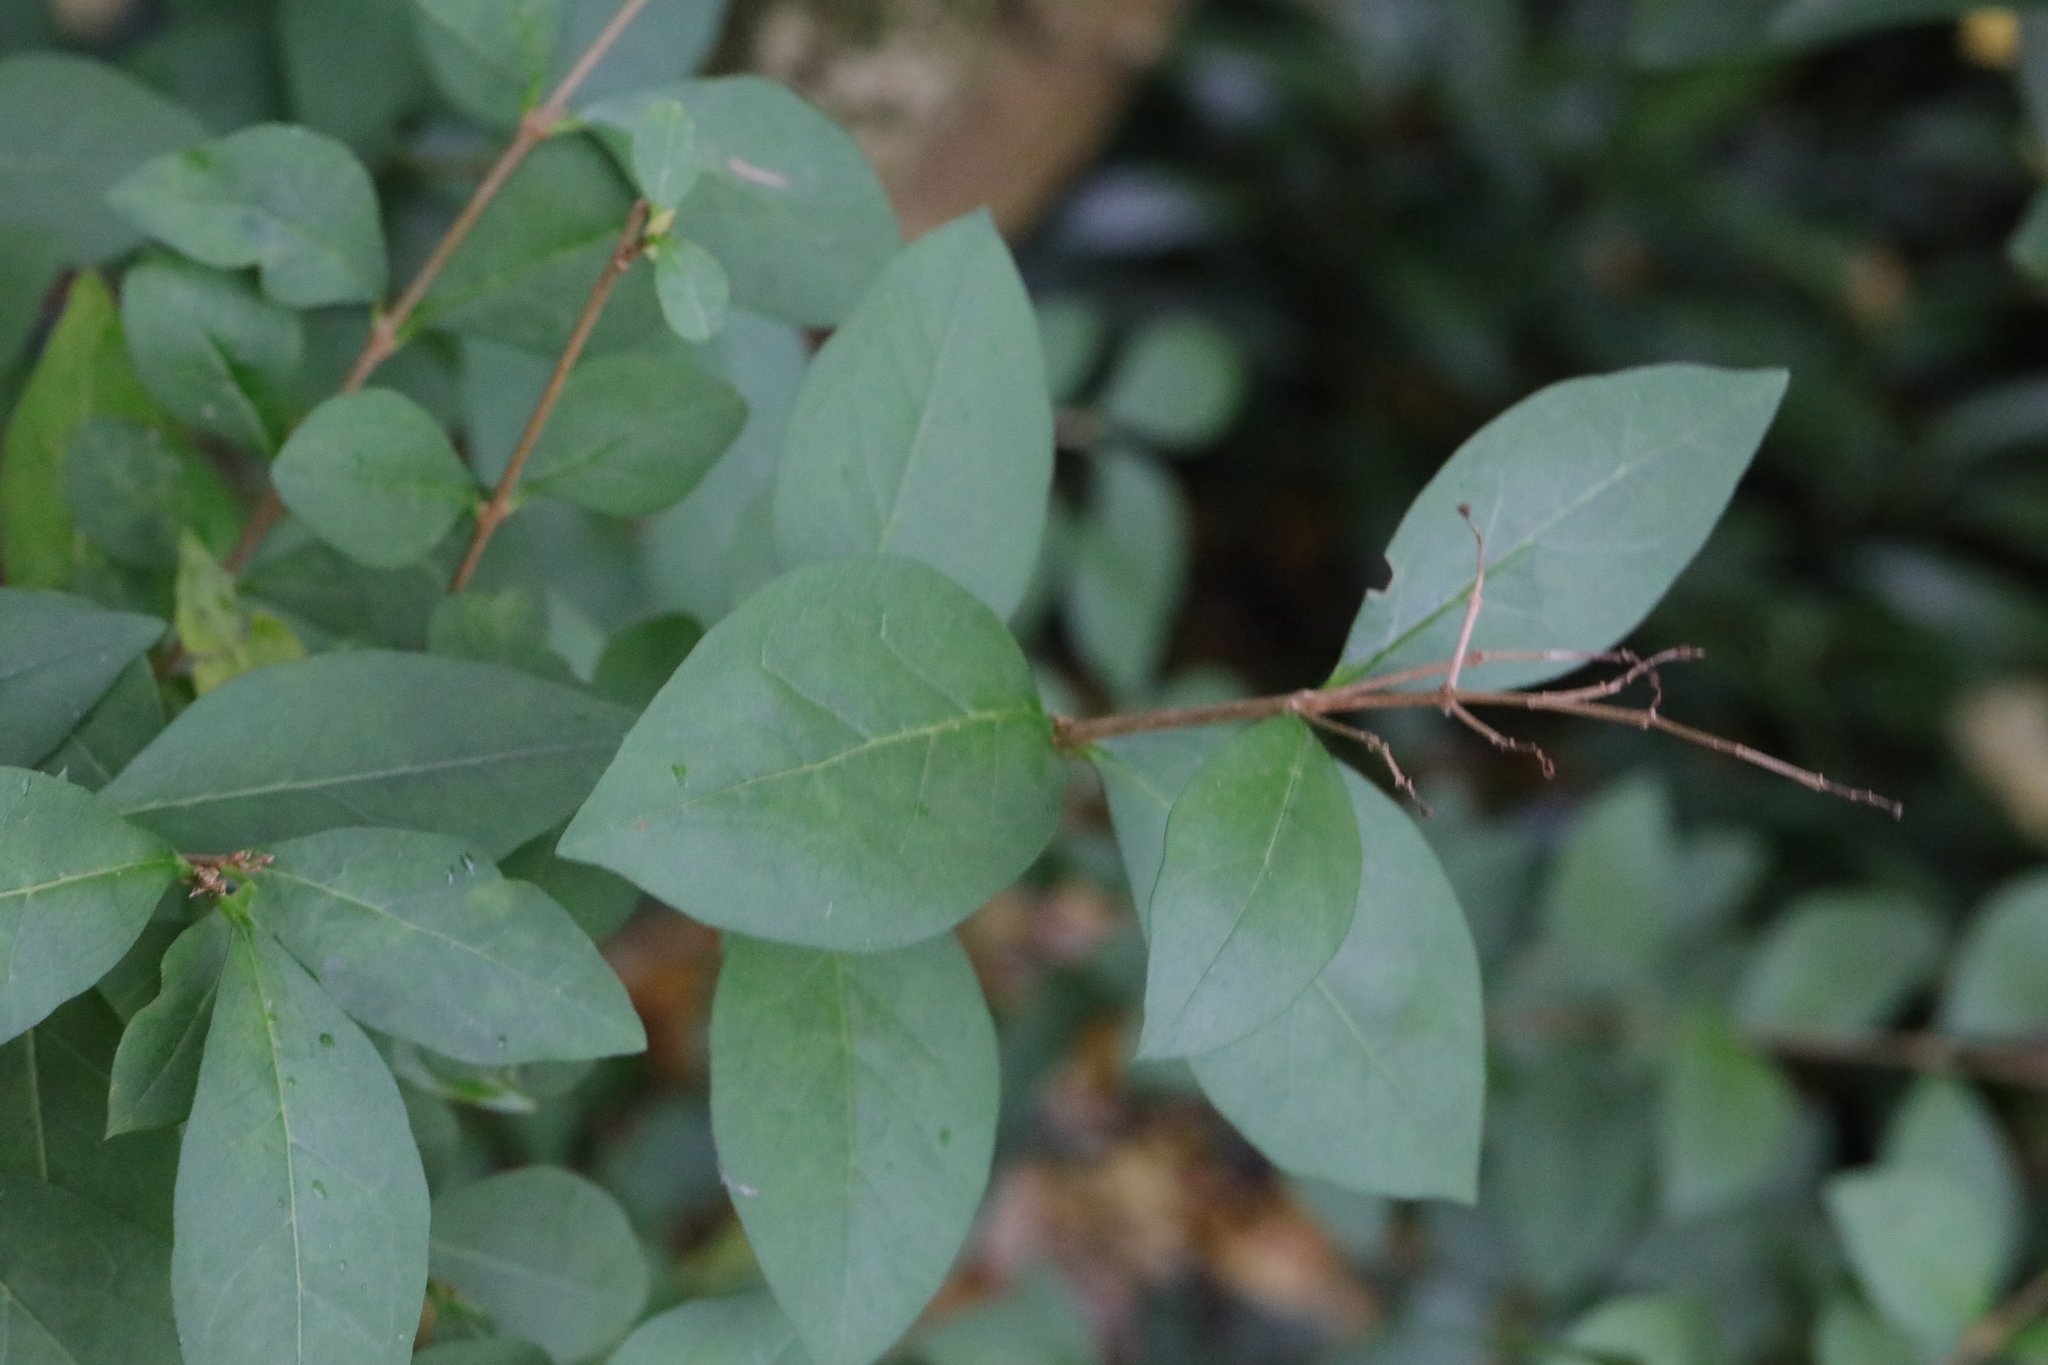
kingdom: Plantae
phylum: Tracheophyta
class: Magnoliopsida
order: Lamiales
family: Oleaceae
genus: Ligustrum
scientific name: Ligustrum ovalifolium
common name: California privet
